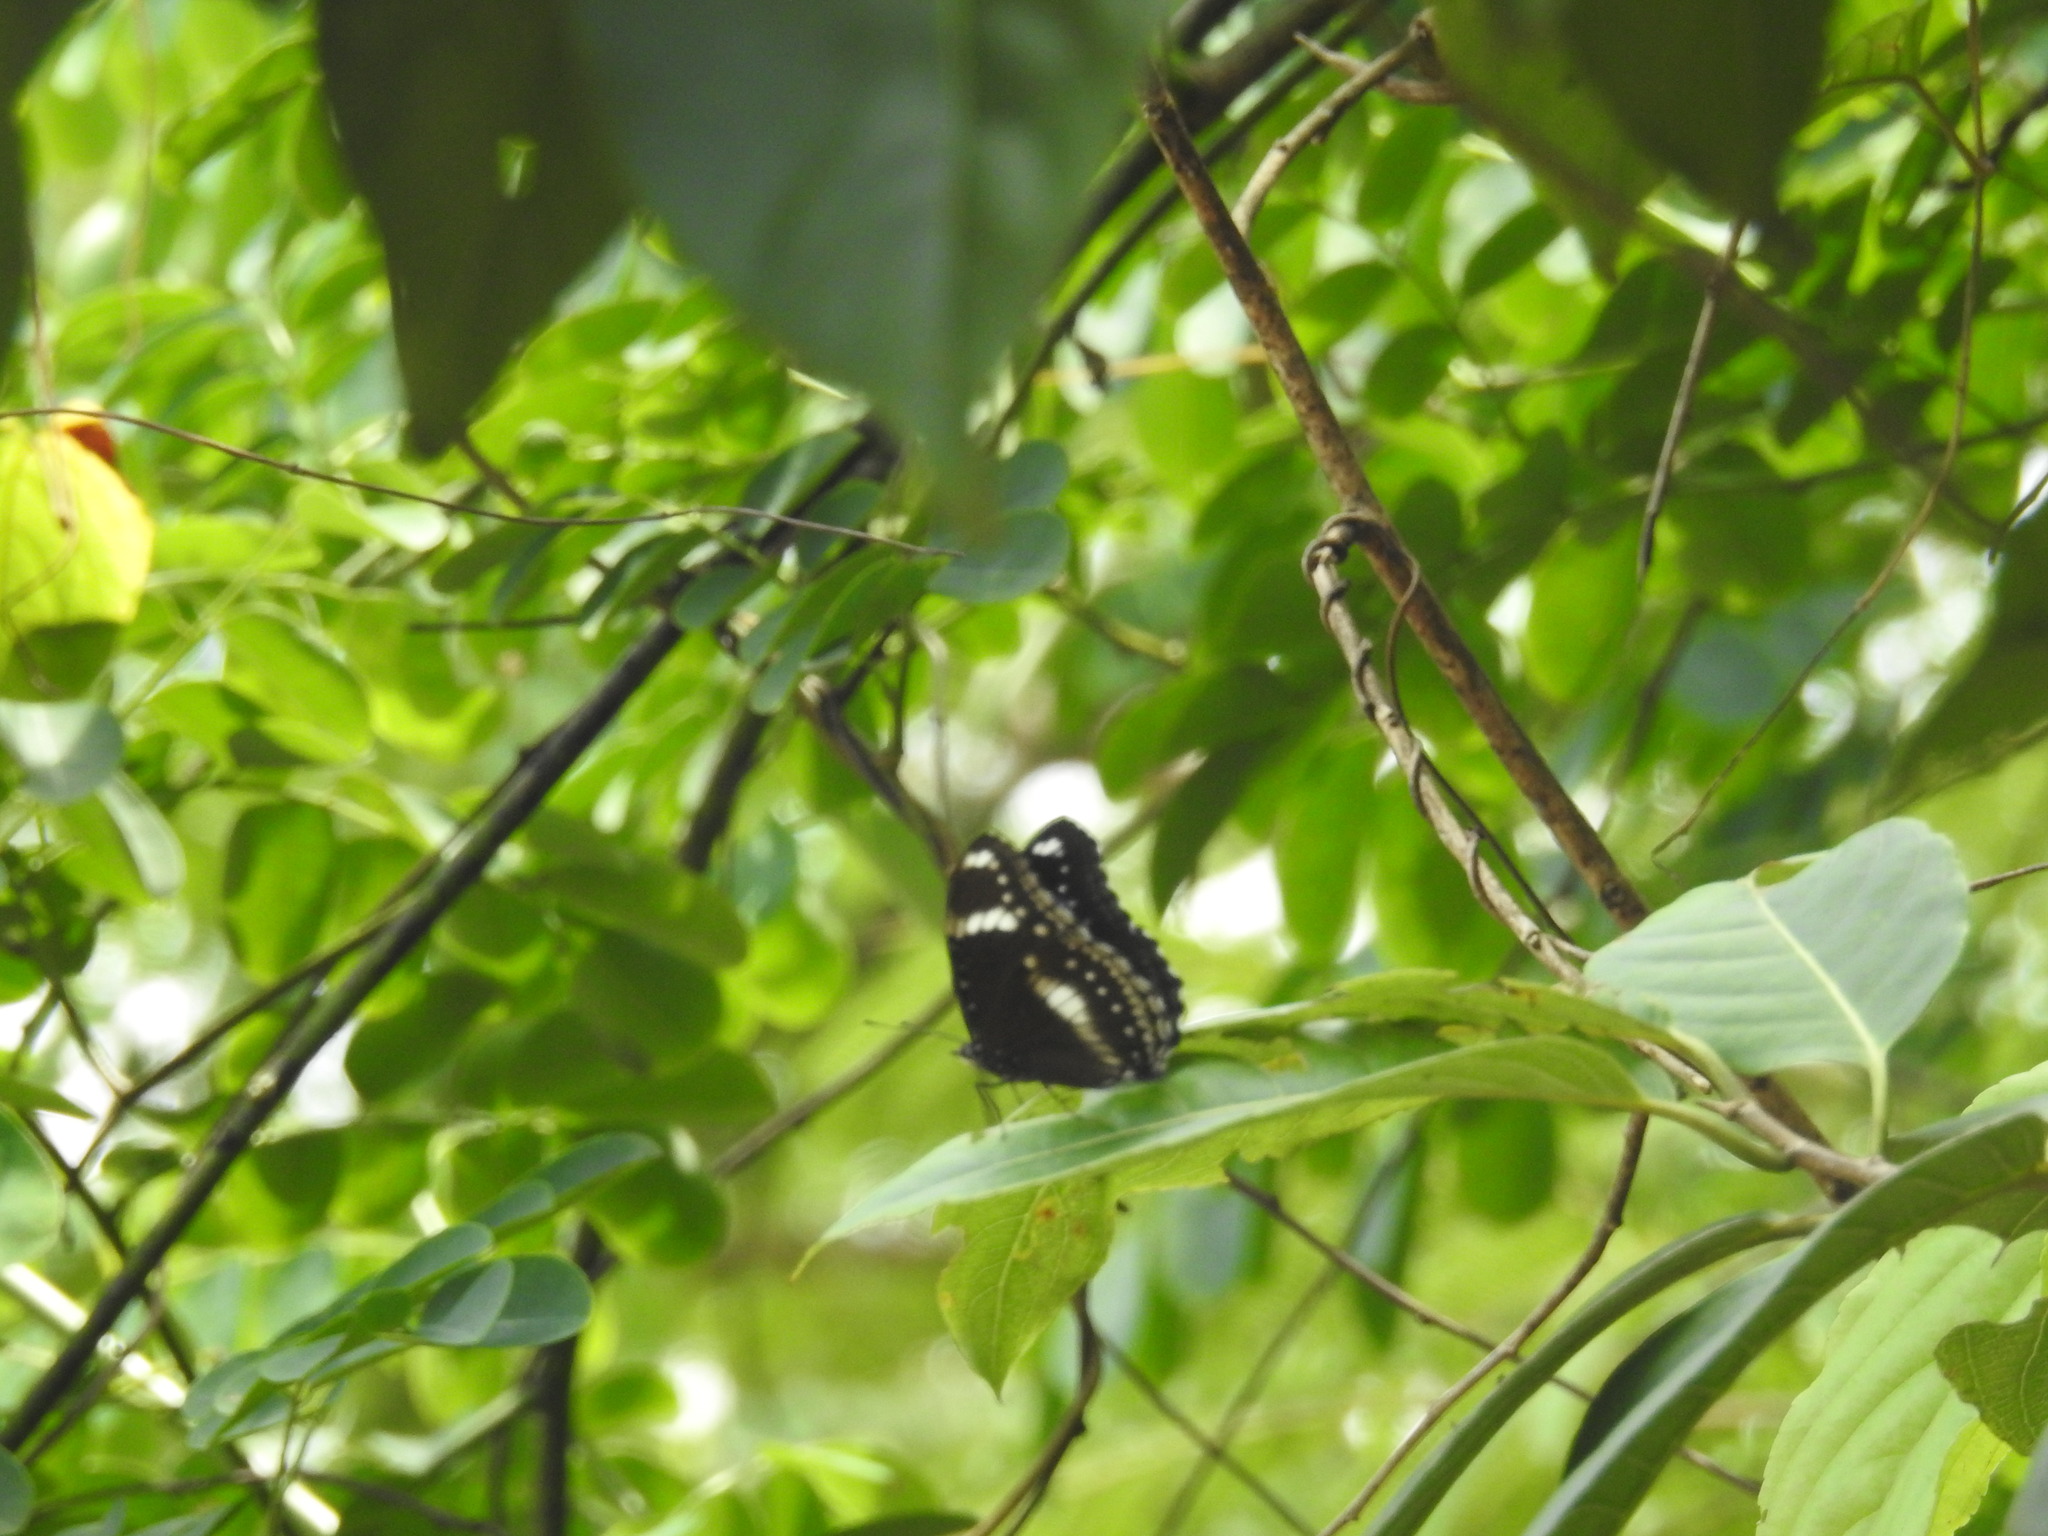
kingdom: Animalia
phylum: Arthropoda
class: Insecta
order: Lepidoptera
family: Nymphalidae
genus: Hypolimnas
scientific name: Hypolimnas bolina
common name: Great eggfly
